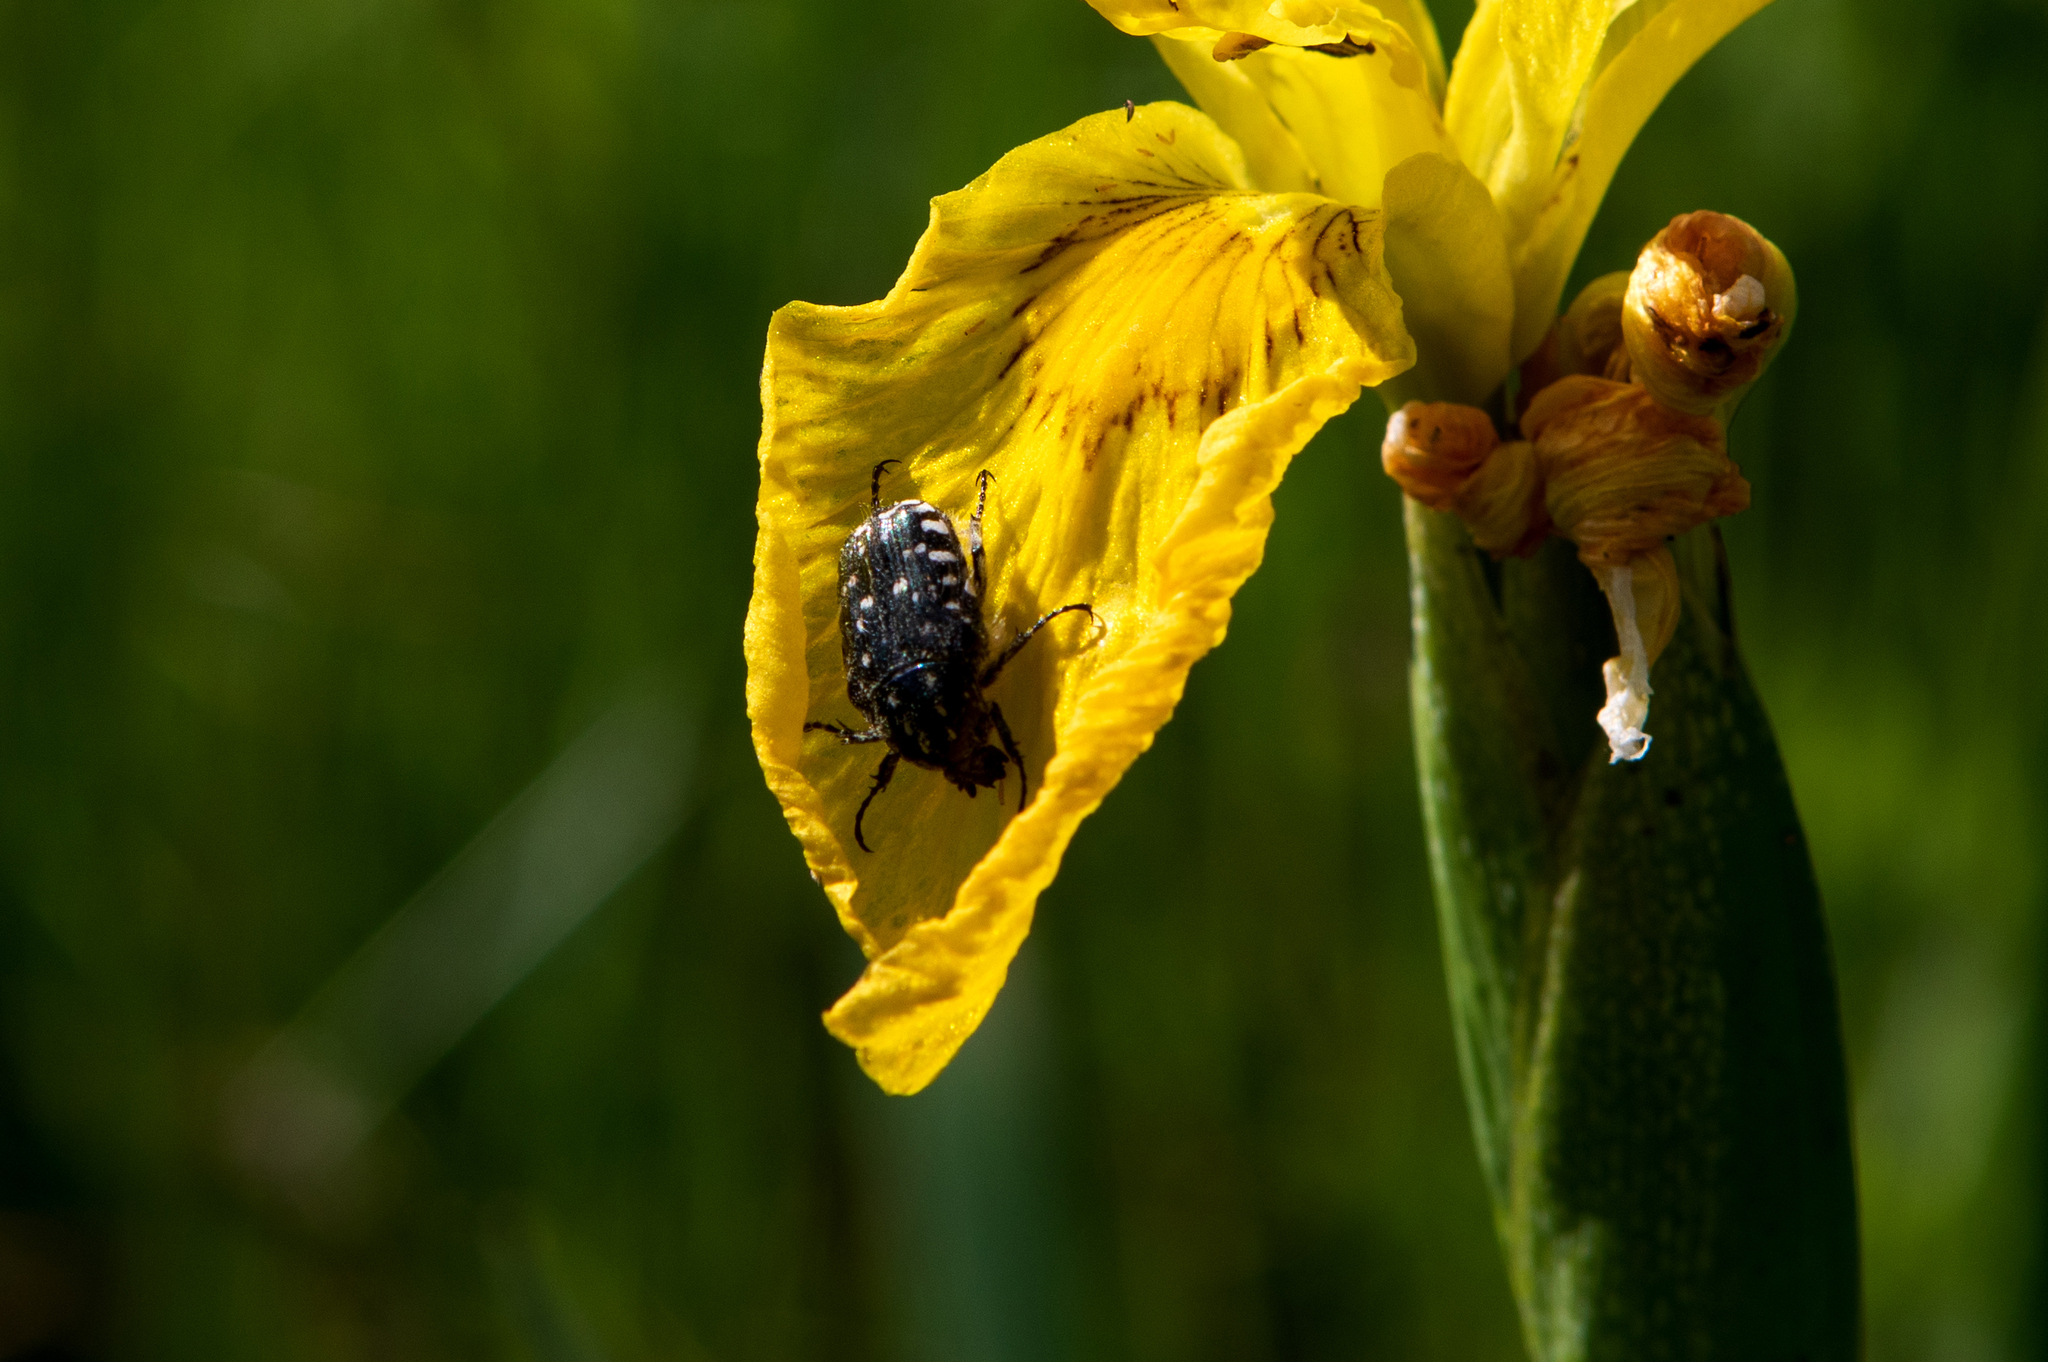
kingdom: Animalia
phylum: Arthropoda
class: Insecta
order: Coleoptera
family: Scarabaeidae
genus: Oxythyrea
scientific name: Oxythyrea funesta
